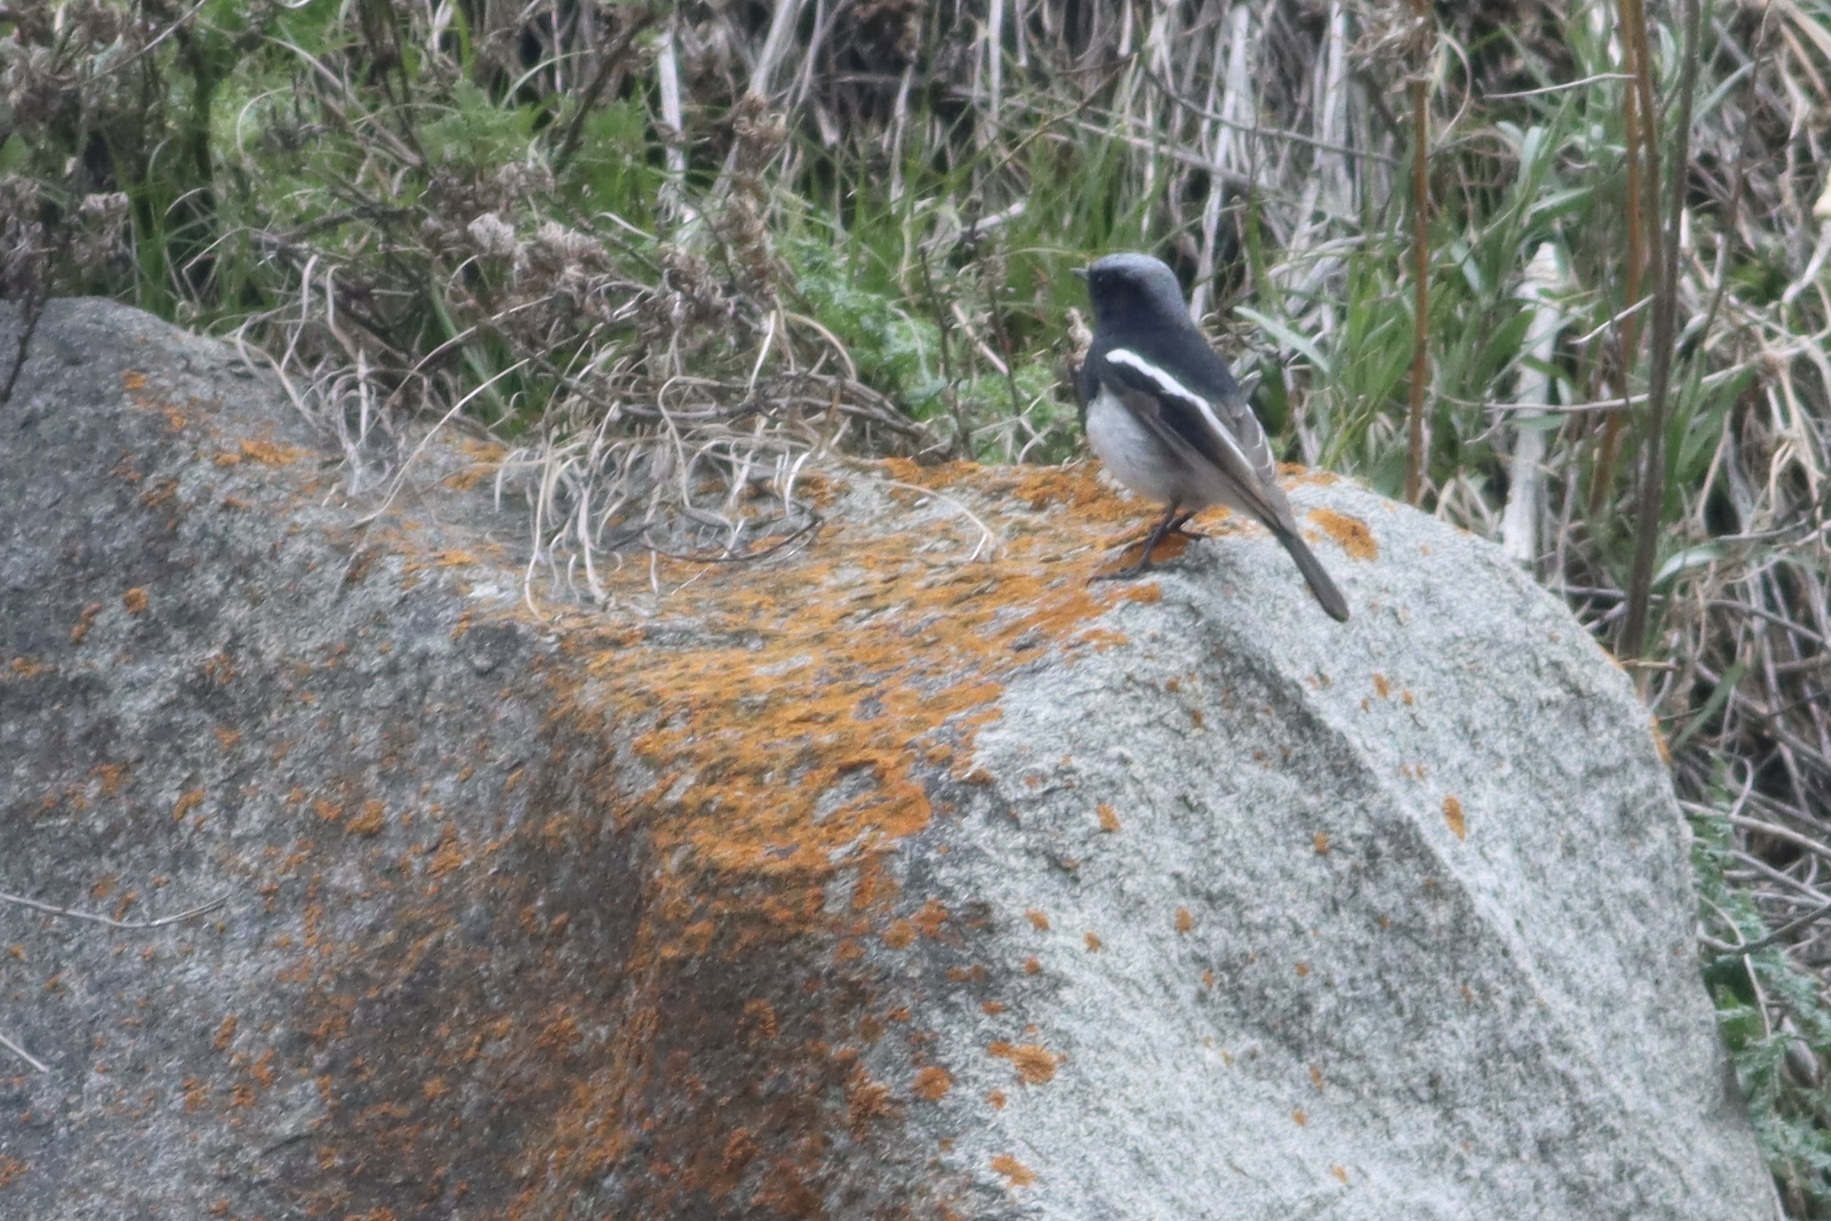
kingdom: Animalia
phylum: Chordata
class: Aves
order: Passeriformes
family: Muscicapidae
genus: Phoenicurus
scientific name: Phoenicurus coeruleocephala
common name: Blue-capped redstart
